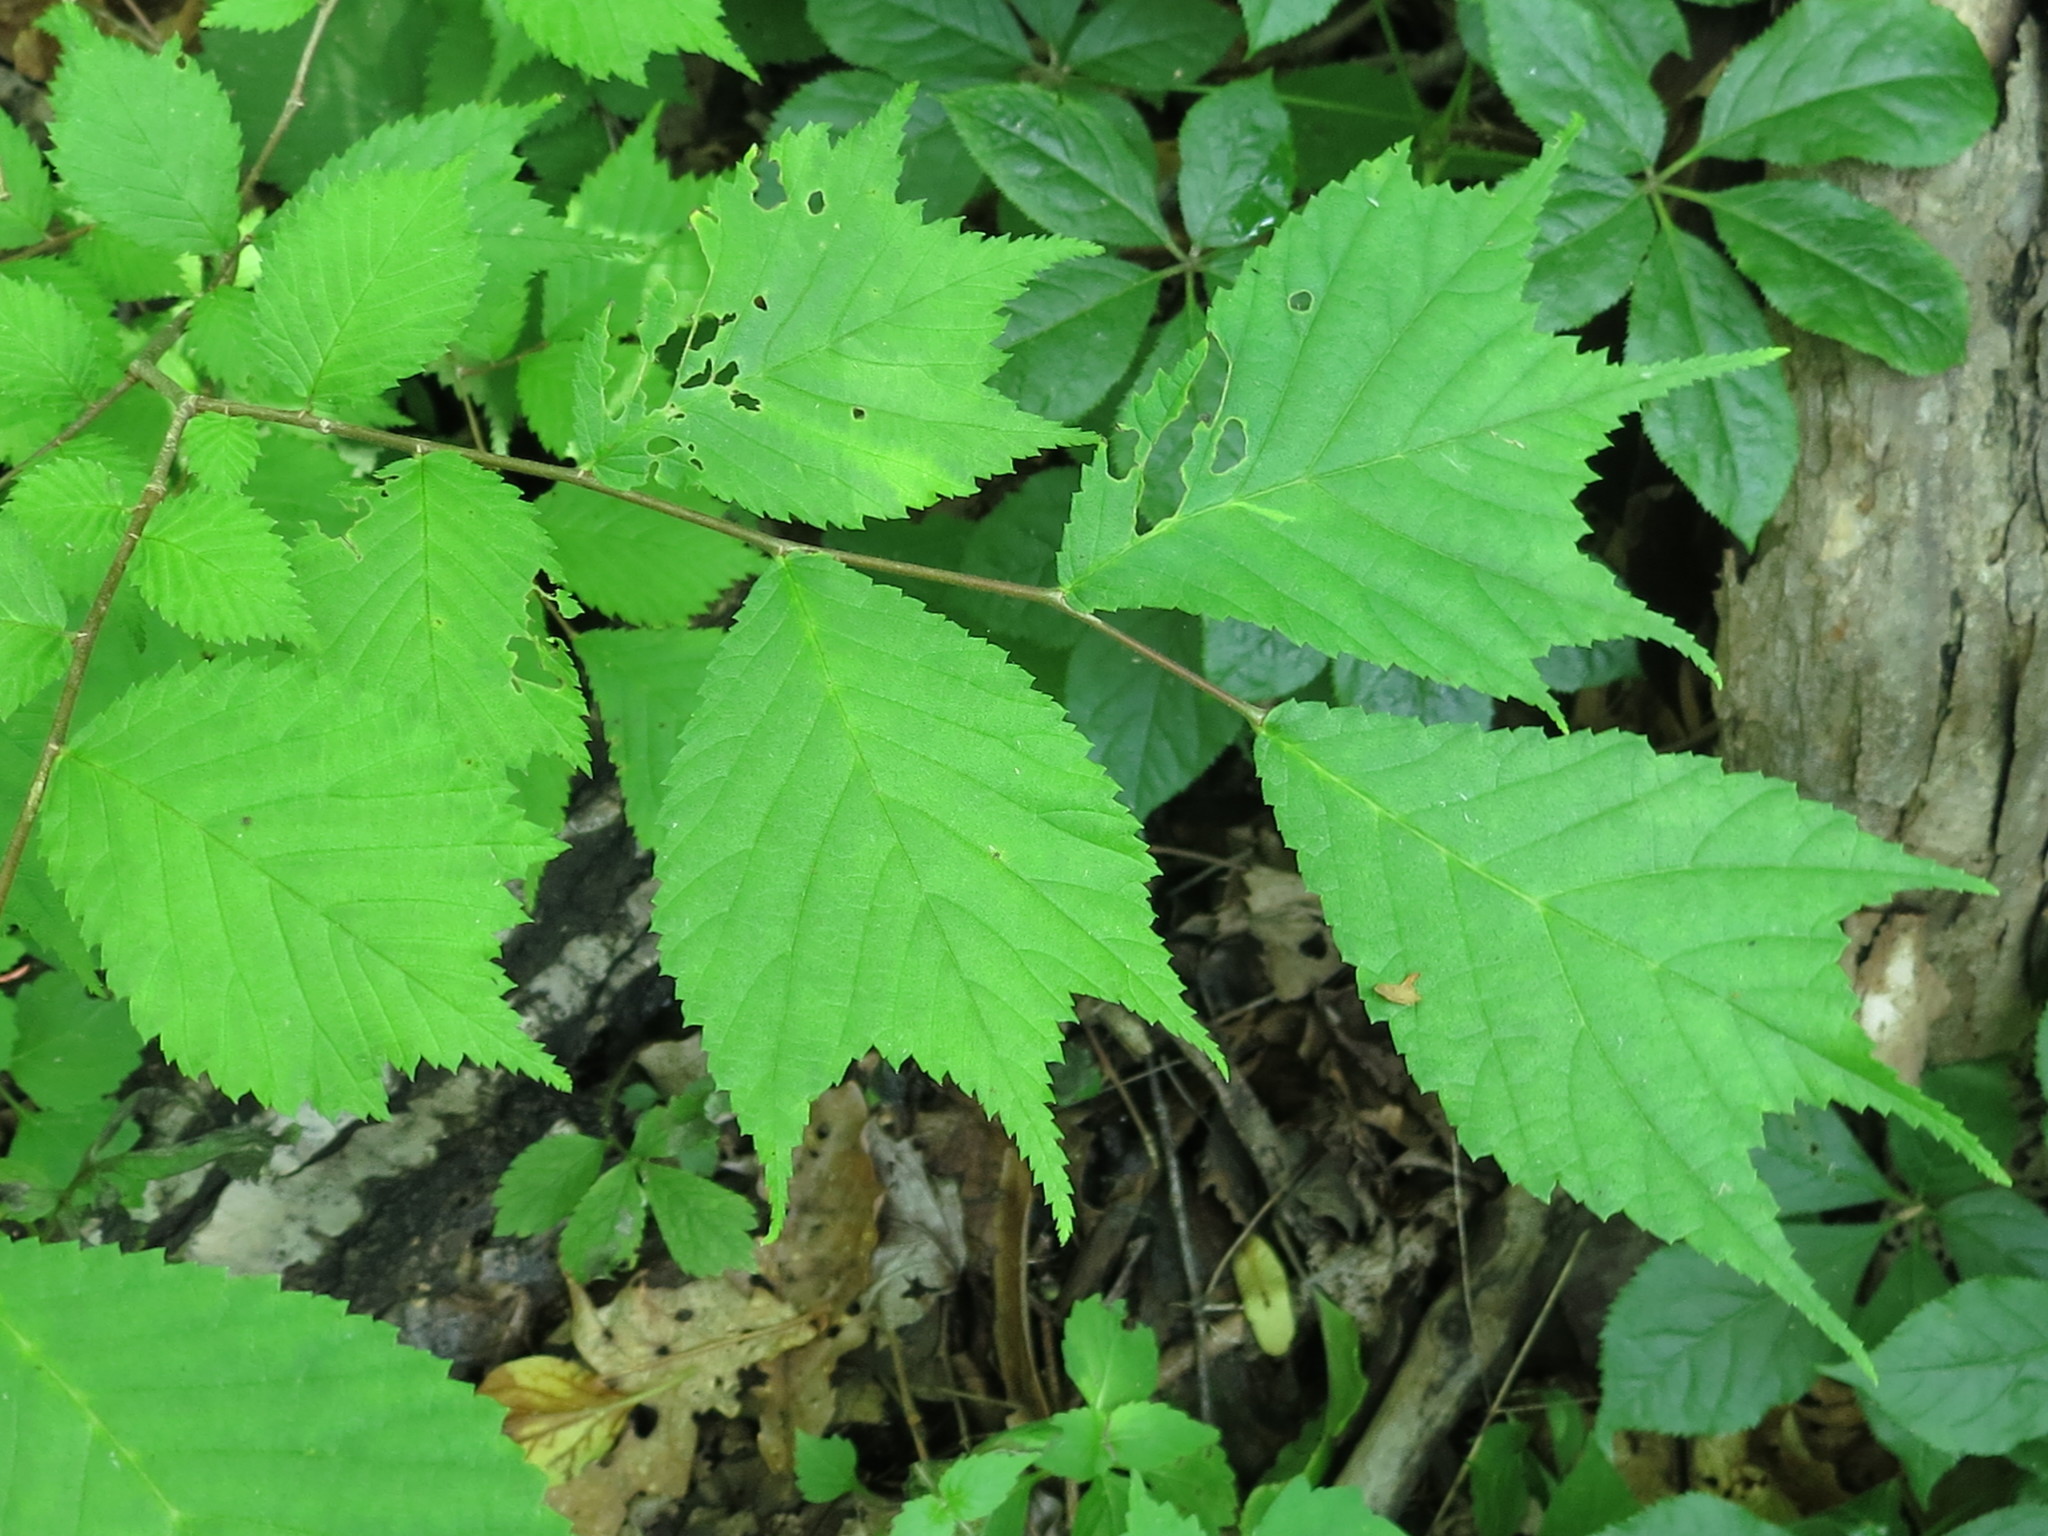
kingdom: Plantae
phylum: Tracheophyta
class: Magnoliopsida
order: Rosales
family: Ulmaceae
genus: Ulmus
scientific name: Ulmus laciniata
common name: Japanese elm
